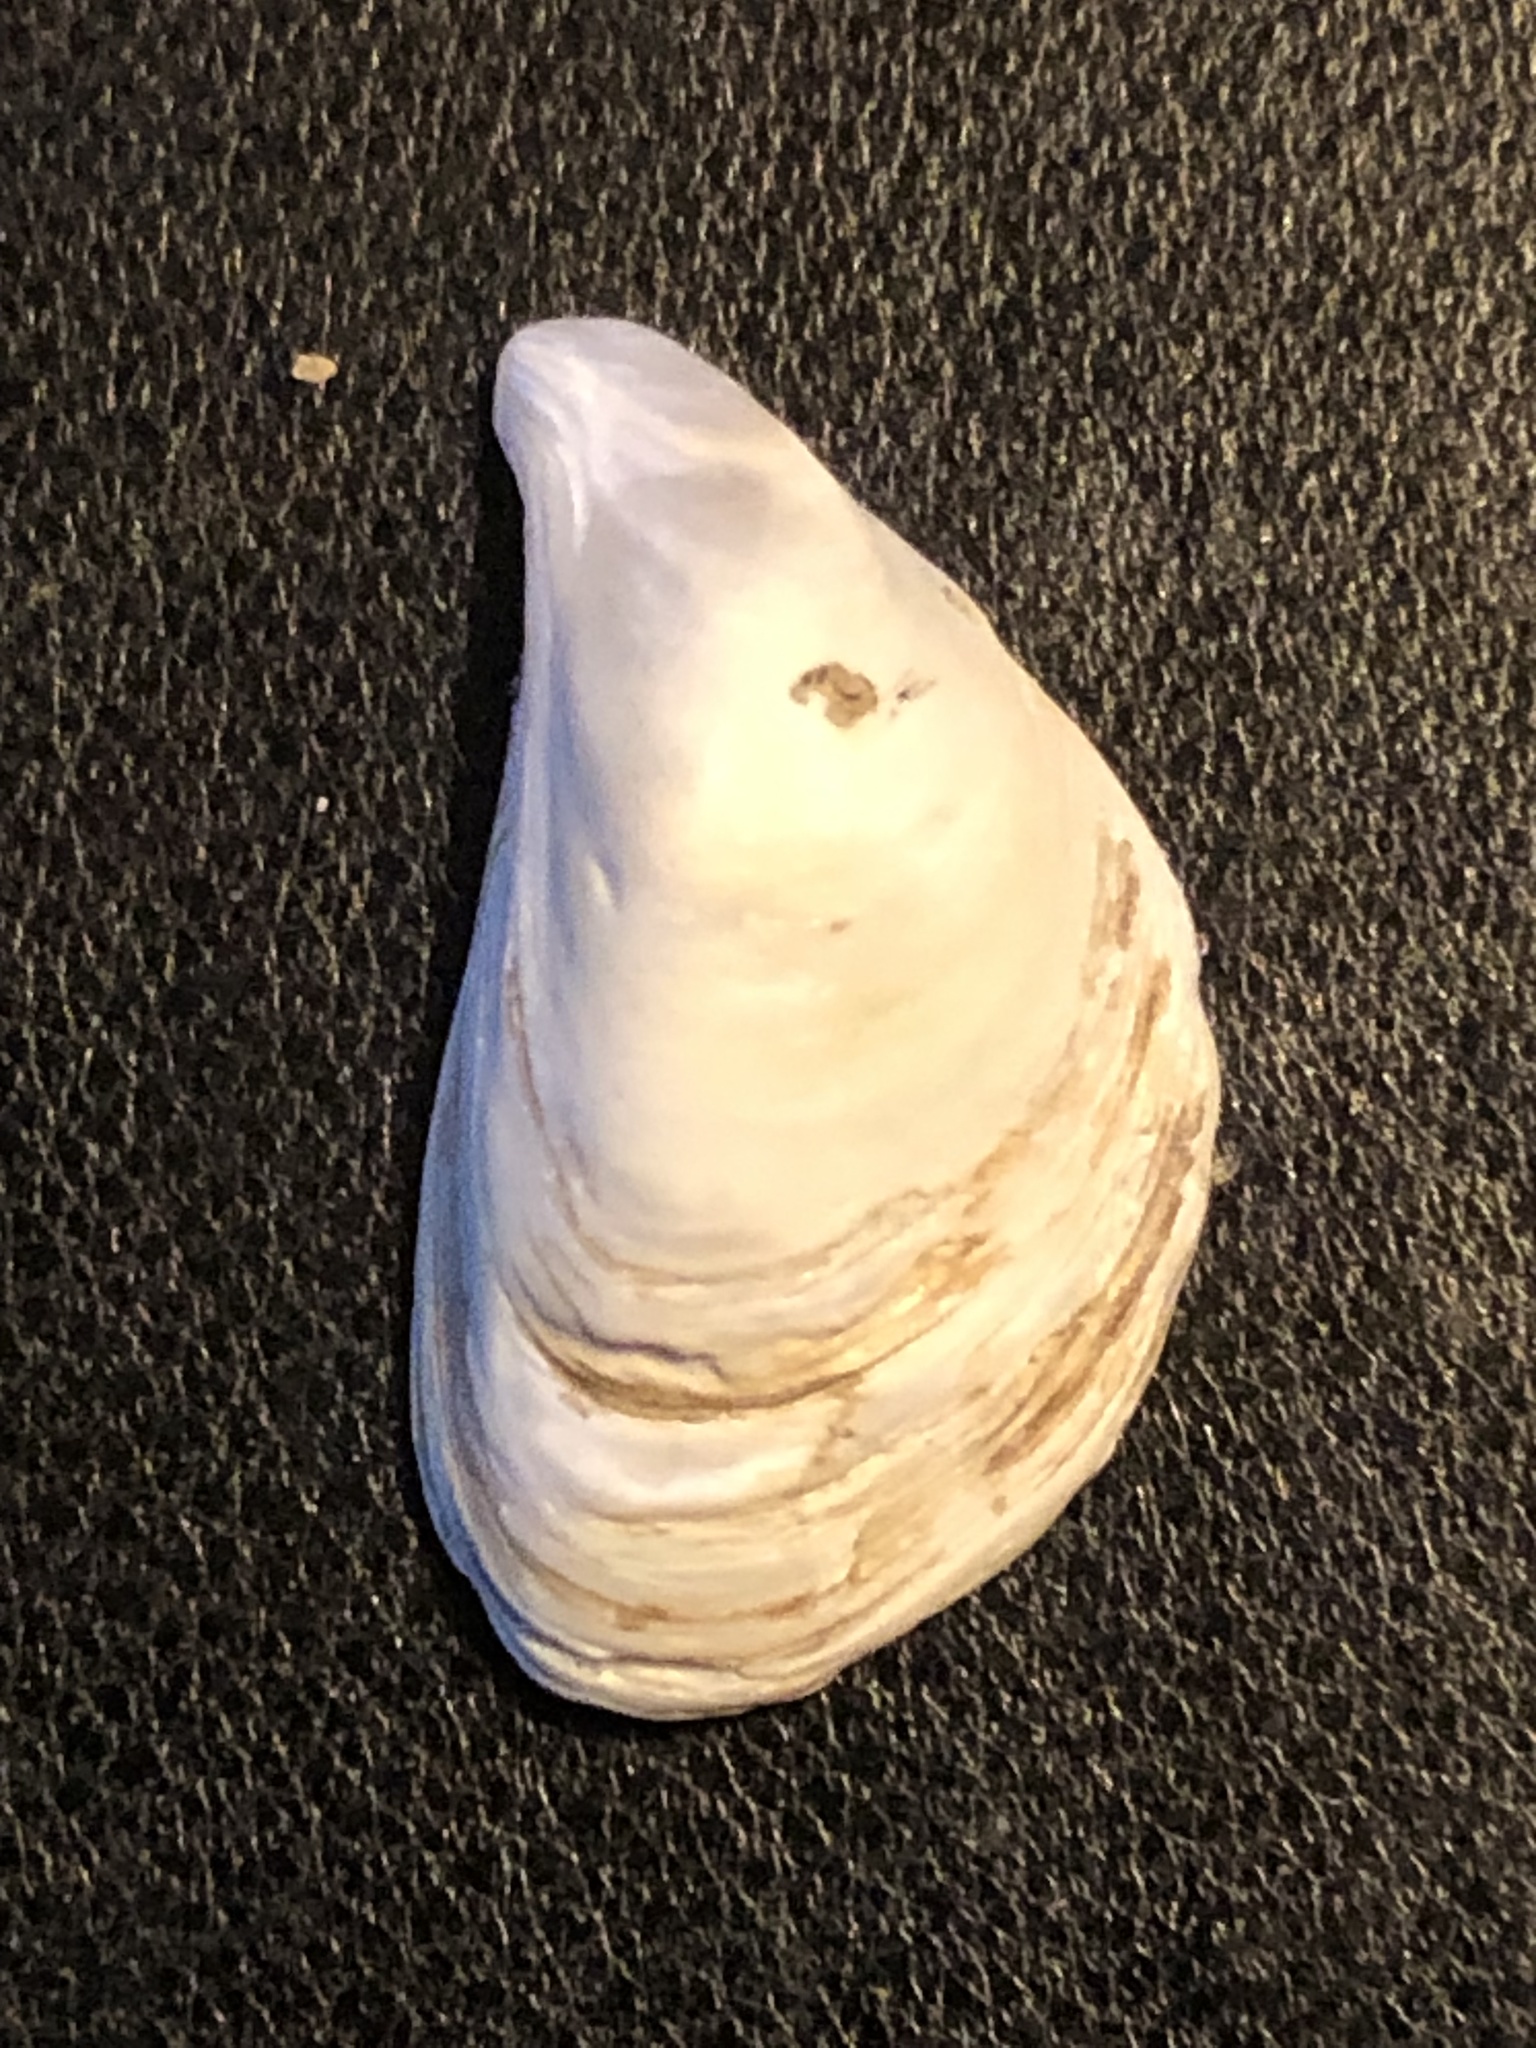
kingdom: Animalia
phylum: Mollusca
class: Bivalvia
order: Myida
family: Dreissenidae
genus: Dreissena
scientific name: Dreissena bugensis
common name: Quagga mussel
